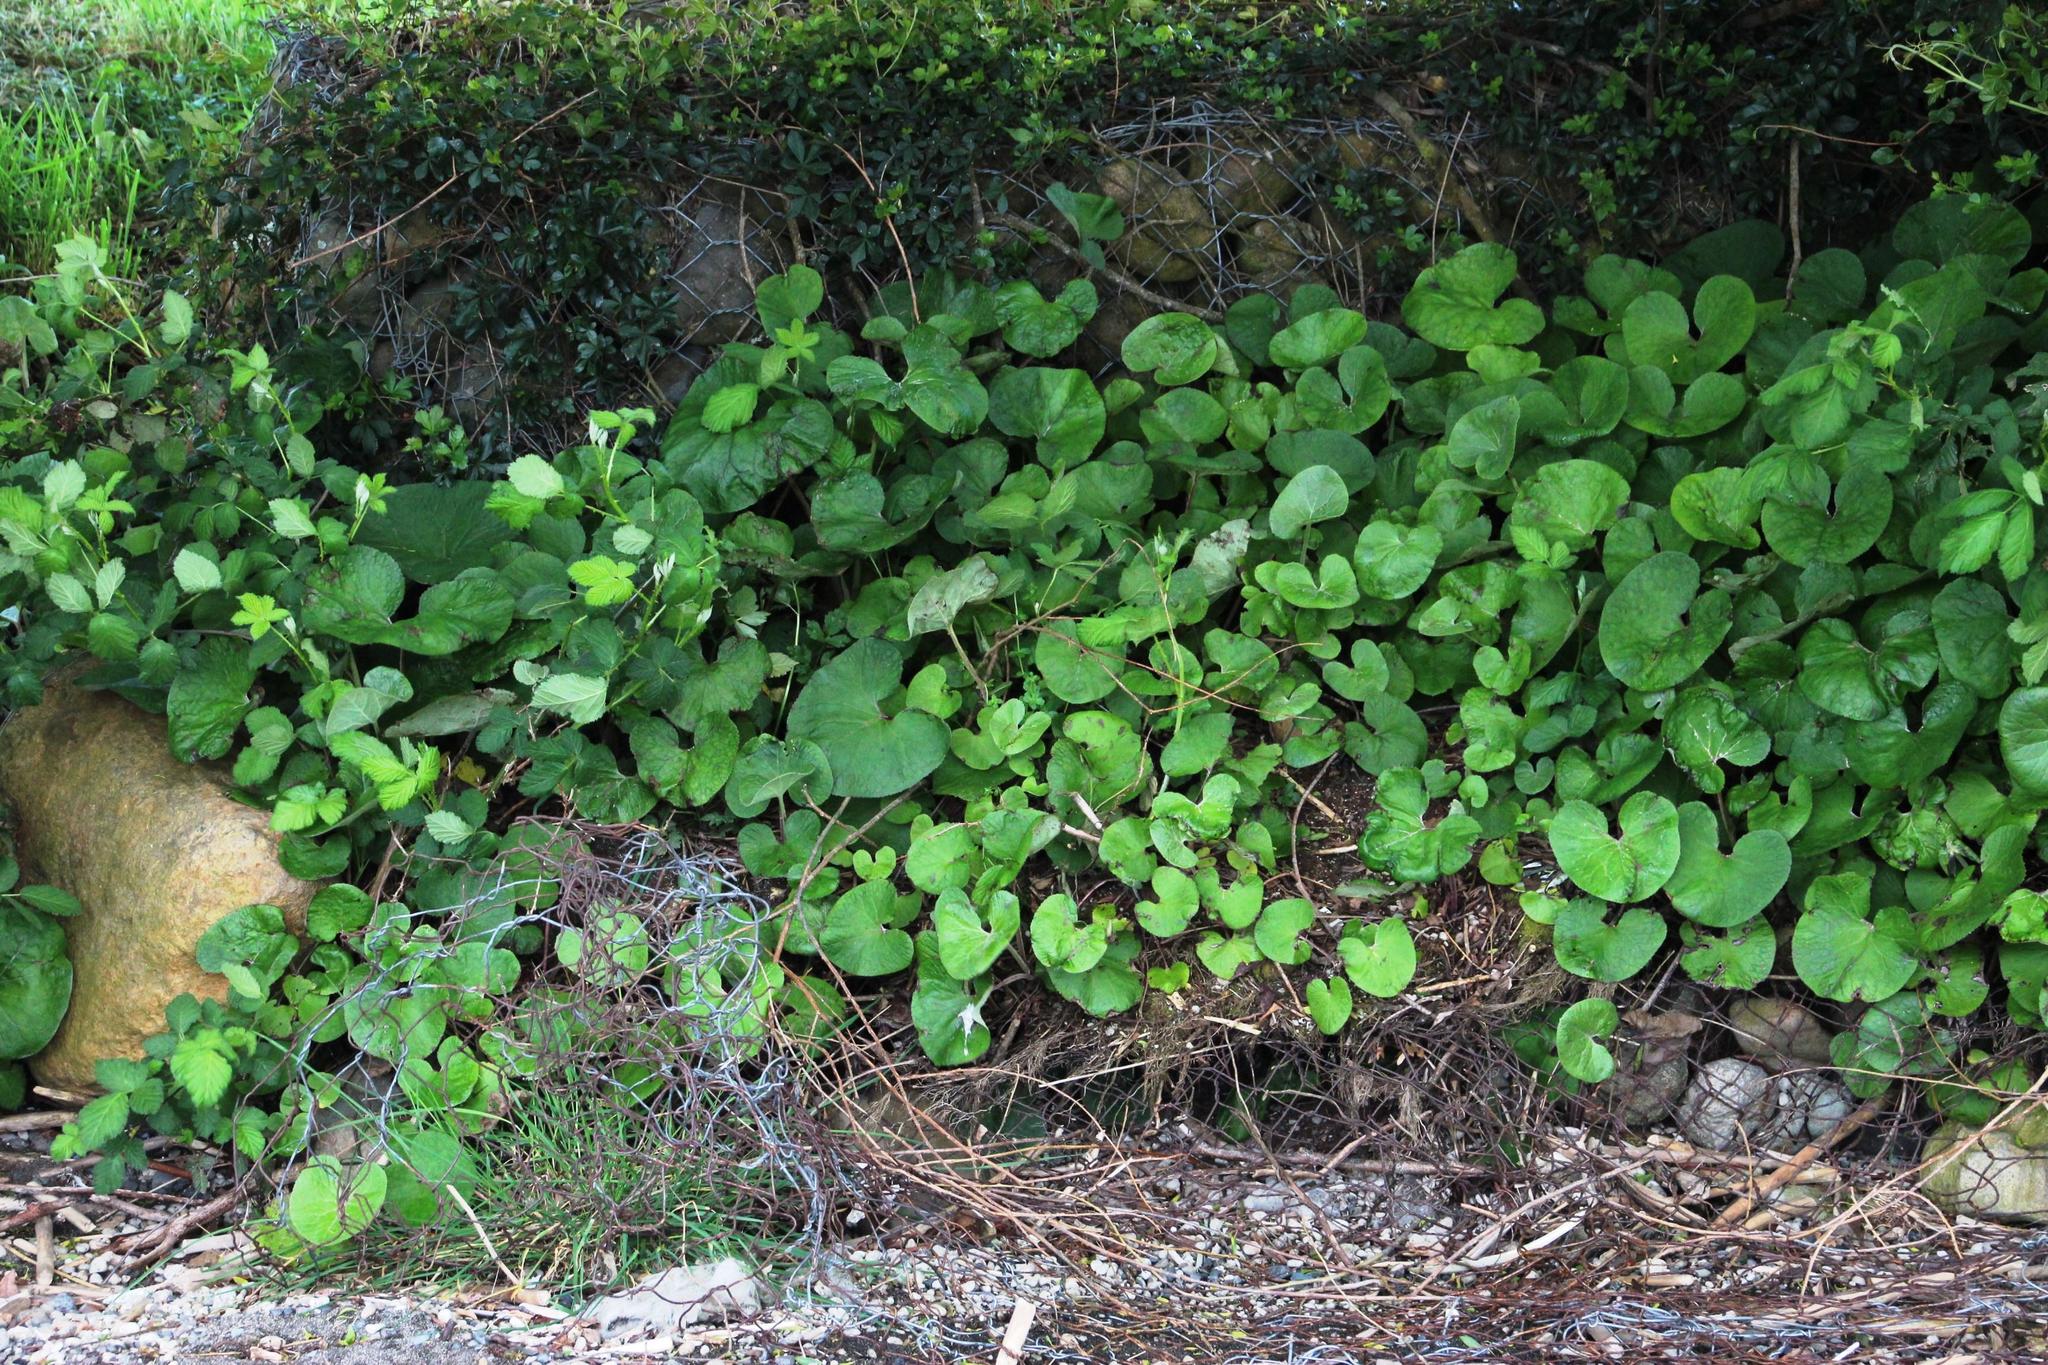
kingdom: Plantae
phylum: Tracheophyta
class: Magnoliopsida
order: Asterales
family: Asteraceae
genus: Petasites
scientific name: Petasites pyrenaicus
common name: Winter heliotrope
